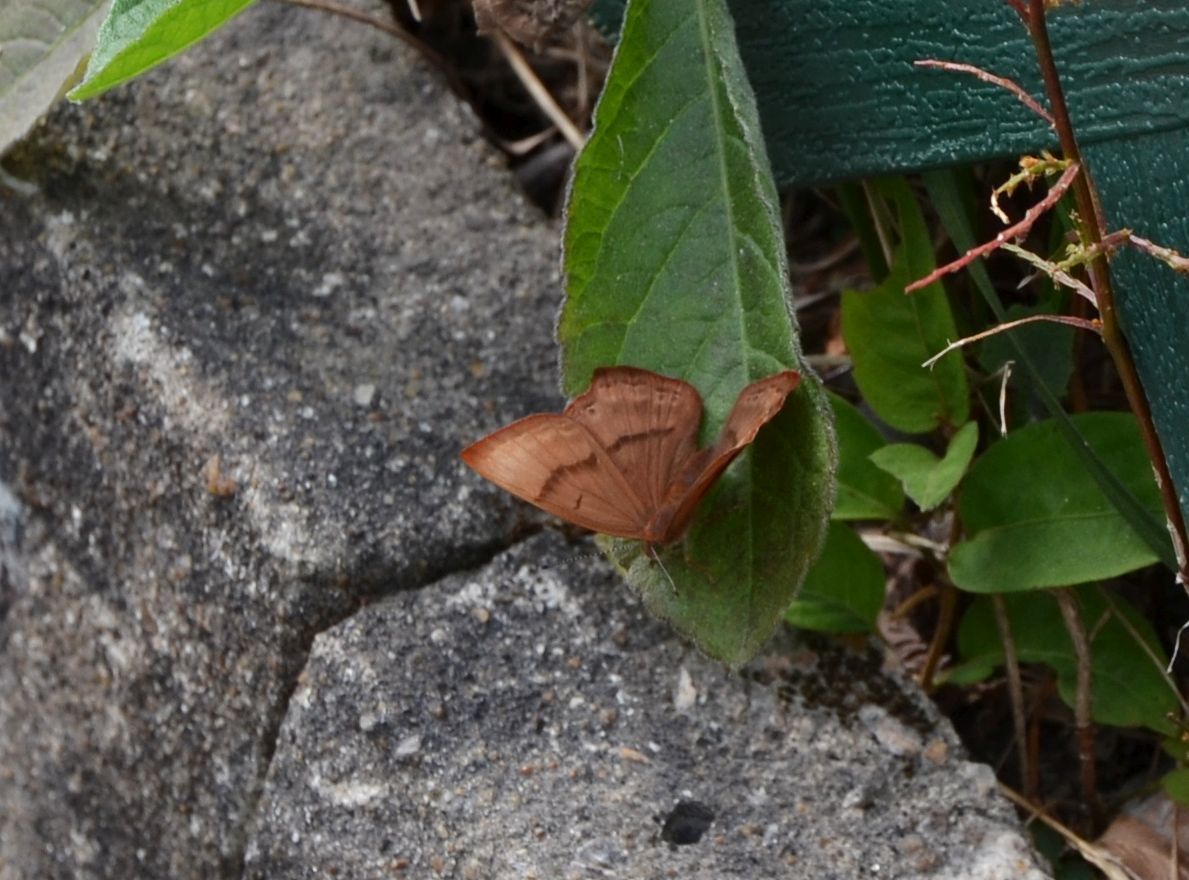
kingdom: Animalia
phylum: Arthropoda
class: Insecta
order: Lepidoptera
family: Lycaenidae
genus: Abisara
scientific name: Abisara echeria
